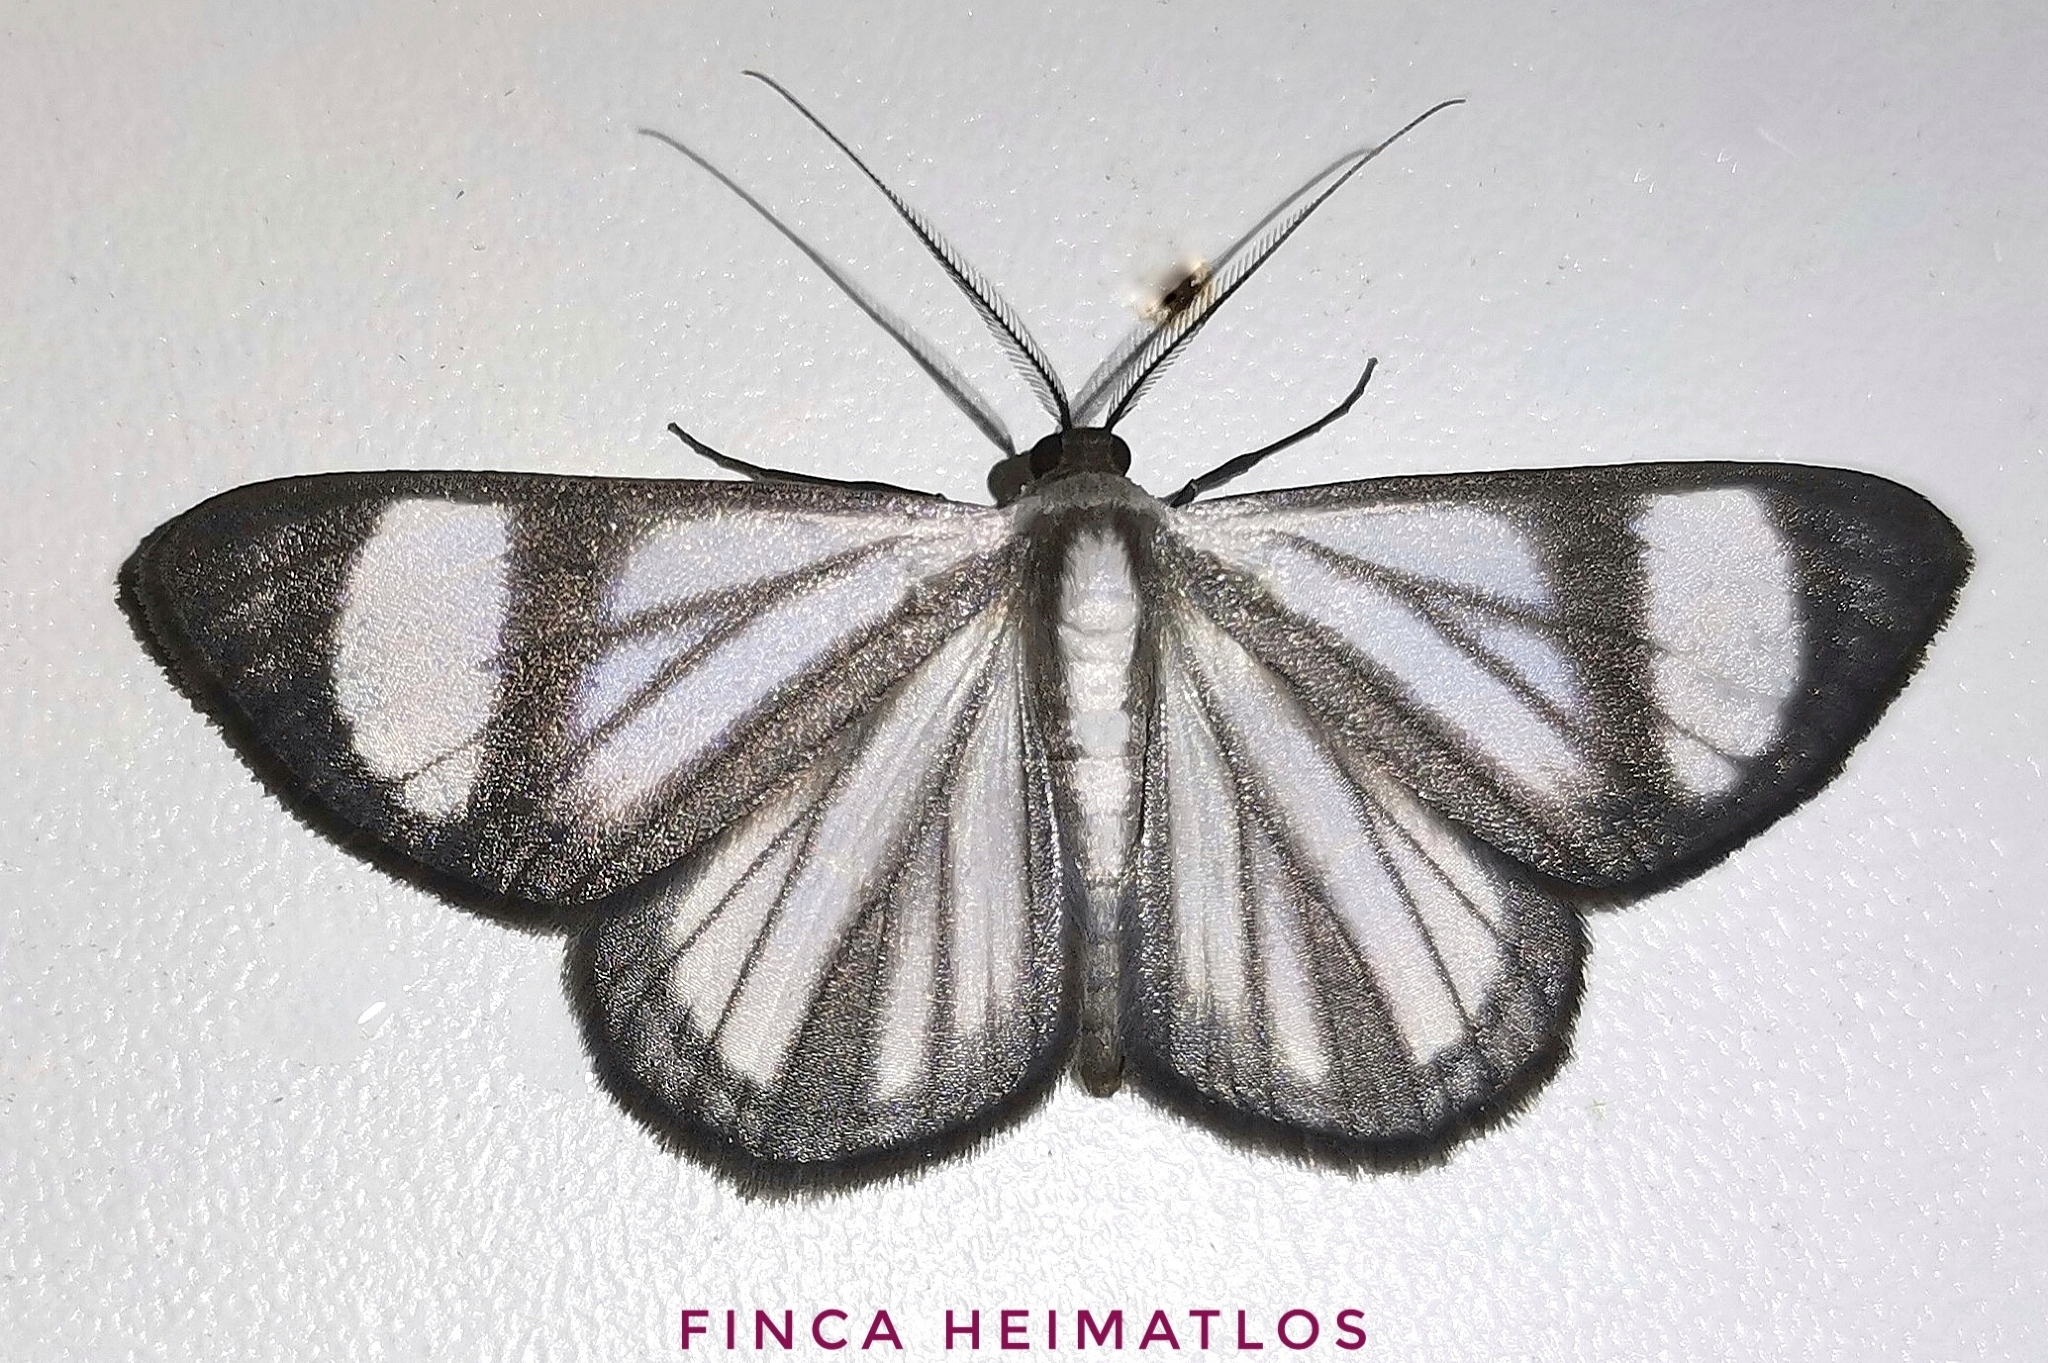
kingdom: Animalia
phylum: Arthropoda
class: Insecta
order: Lepidoptera
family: Geometridae
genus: Genussa
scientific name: Genussa famulata
